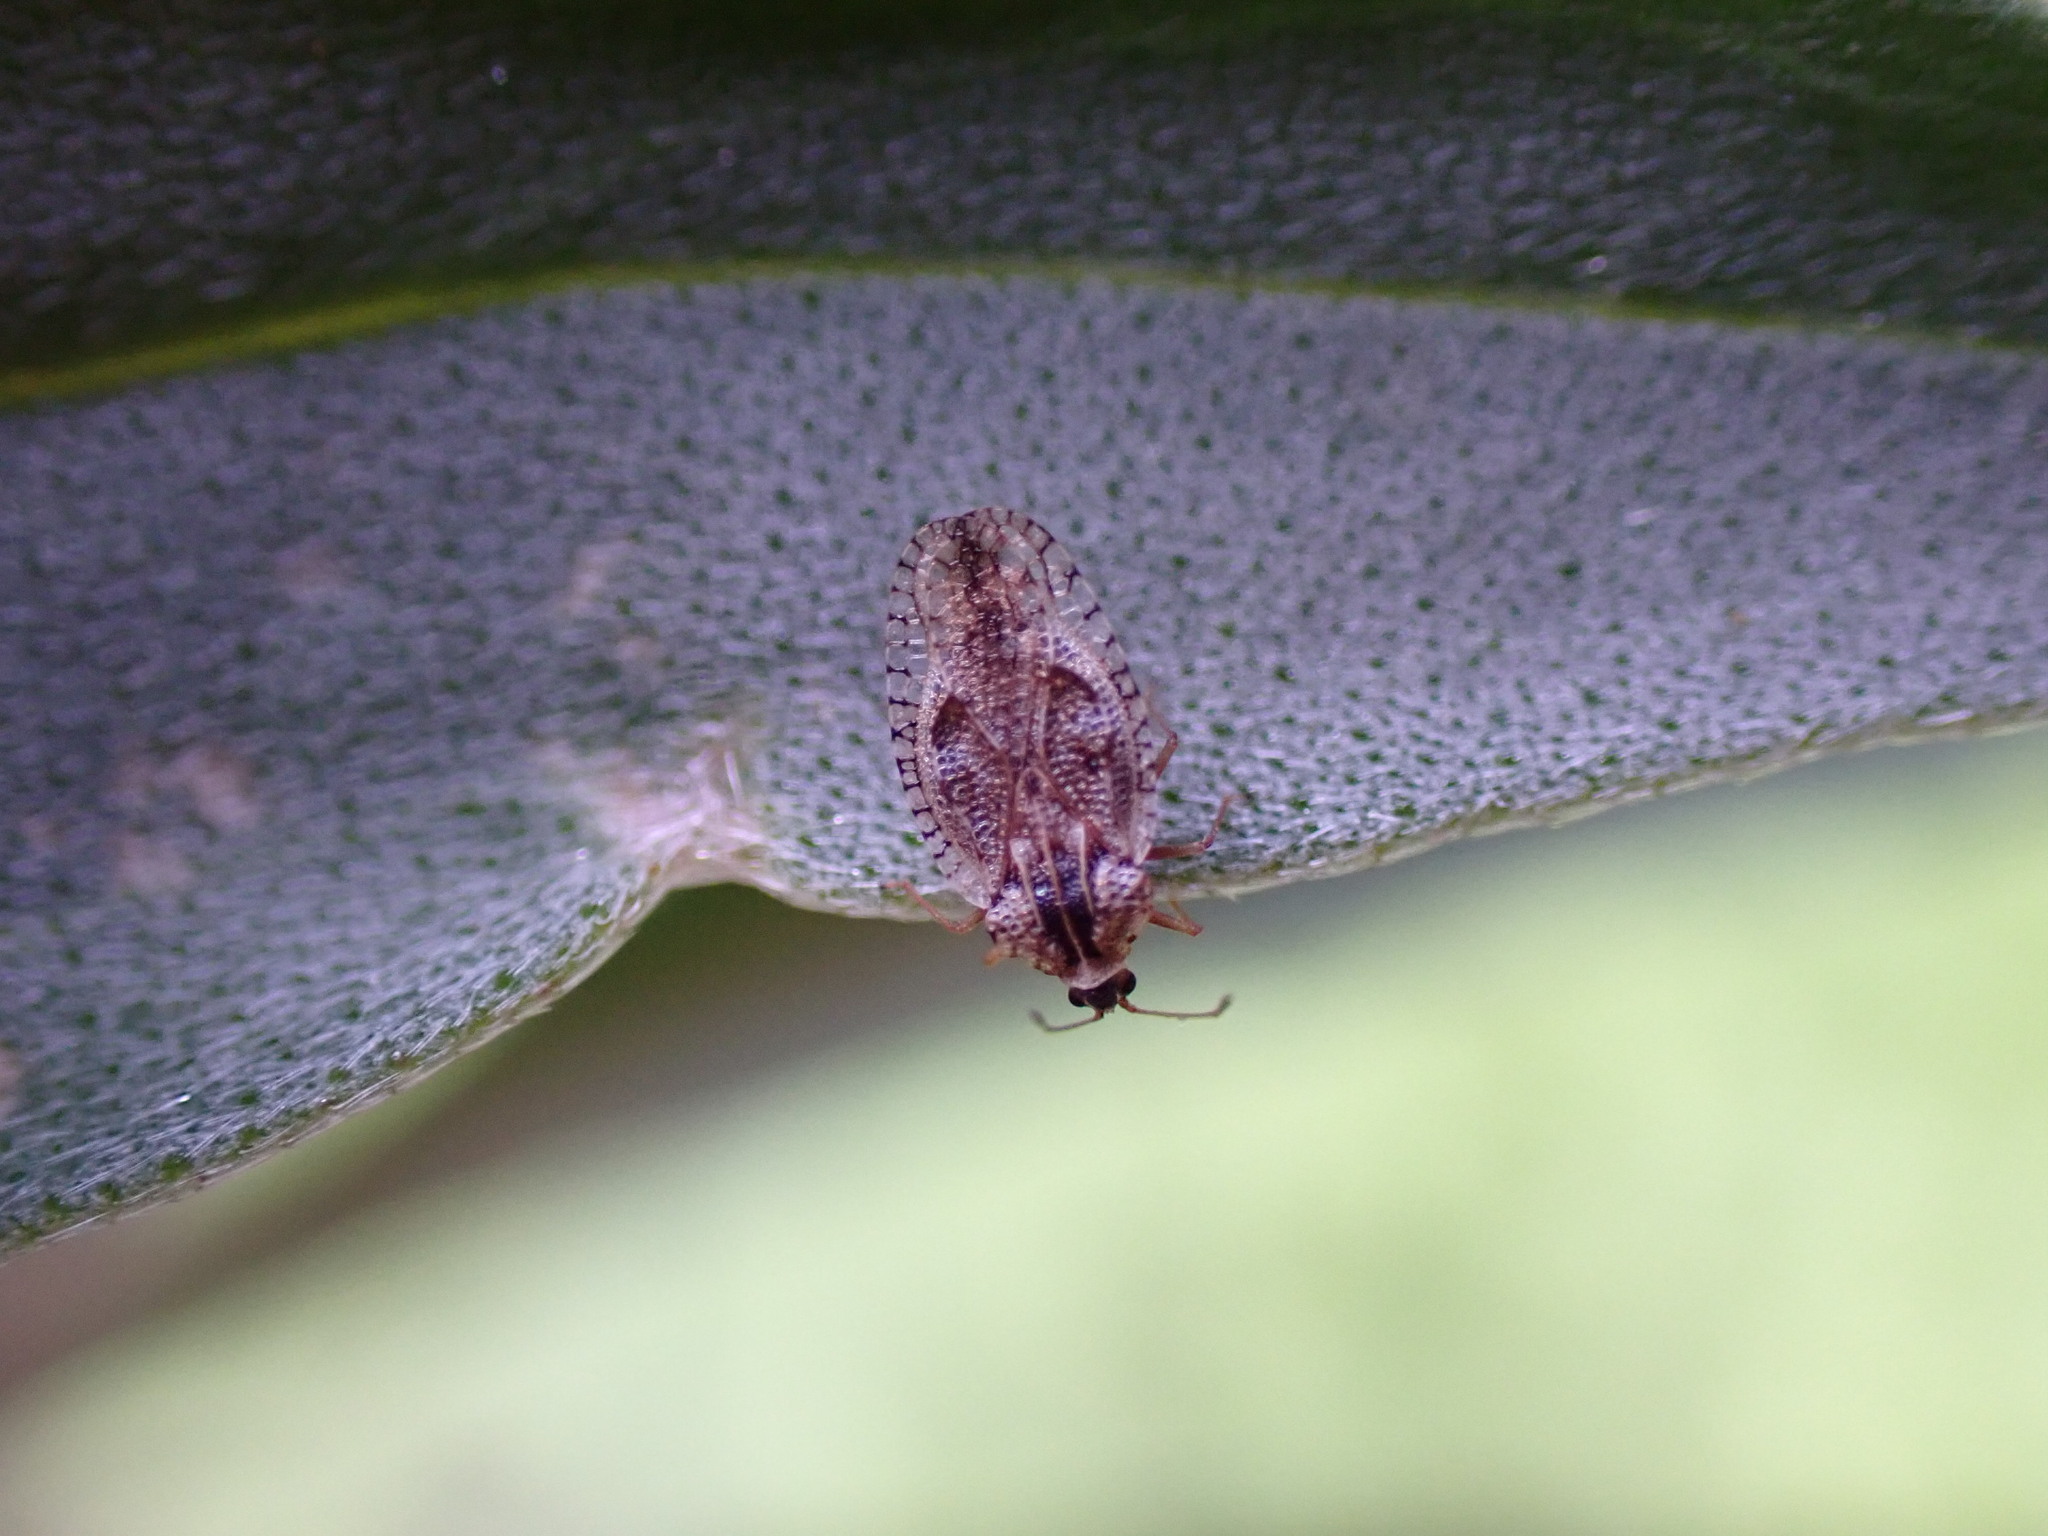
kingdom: Animalia
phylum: Arthropoda
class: Insecta
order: Hemiptera
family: Tingidae
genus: Dictyla
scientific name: Dictyla indigena
